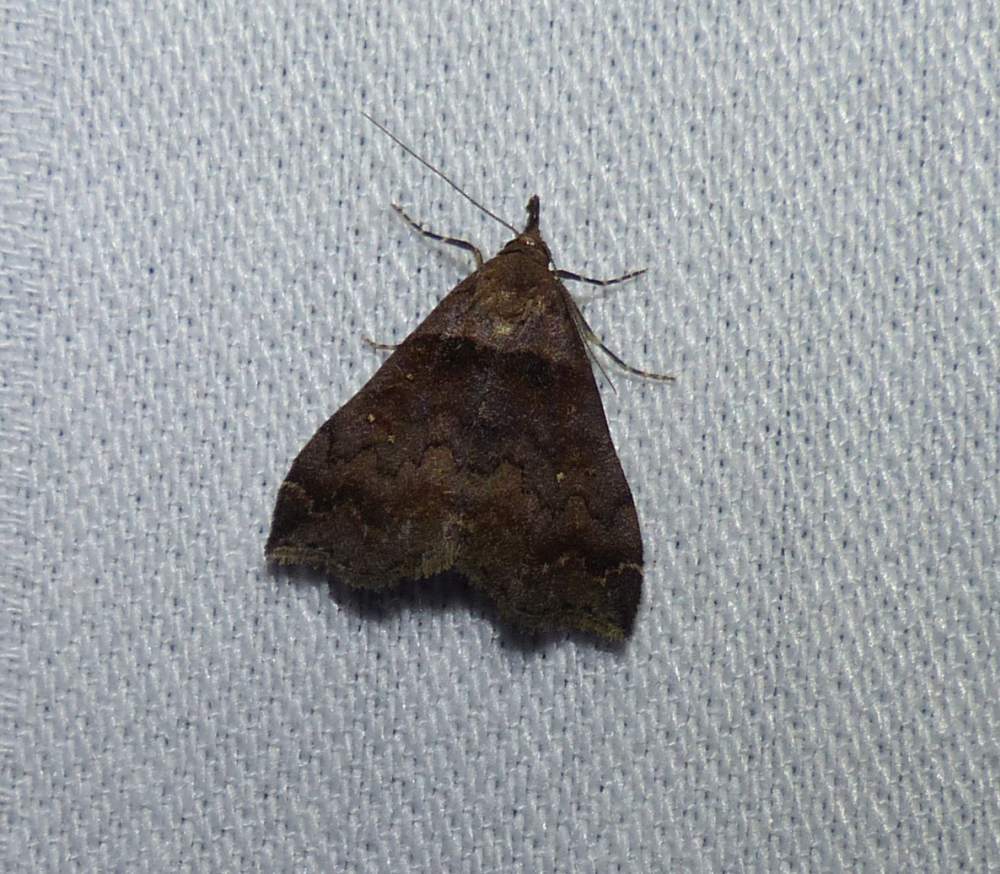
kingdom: Animalia
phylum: Arthropoda
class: Insecta
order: Lepidoptera
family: Erebidae
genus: Lascoria
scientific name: Lascoria ambigualis
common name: Ambiguous moth
